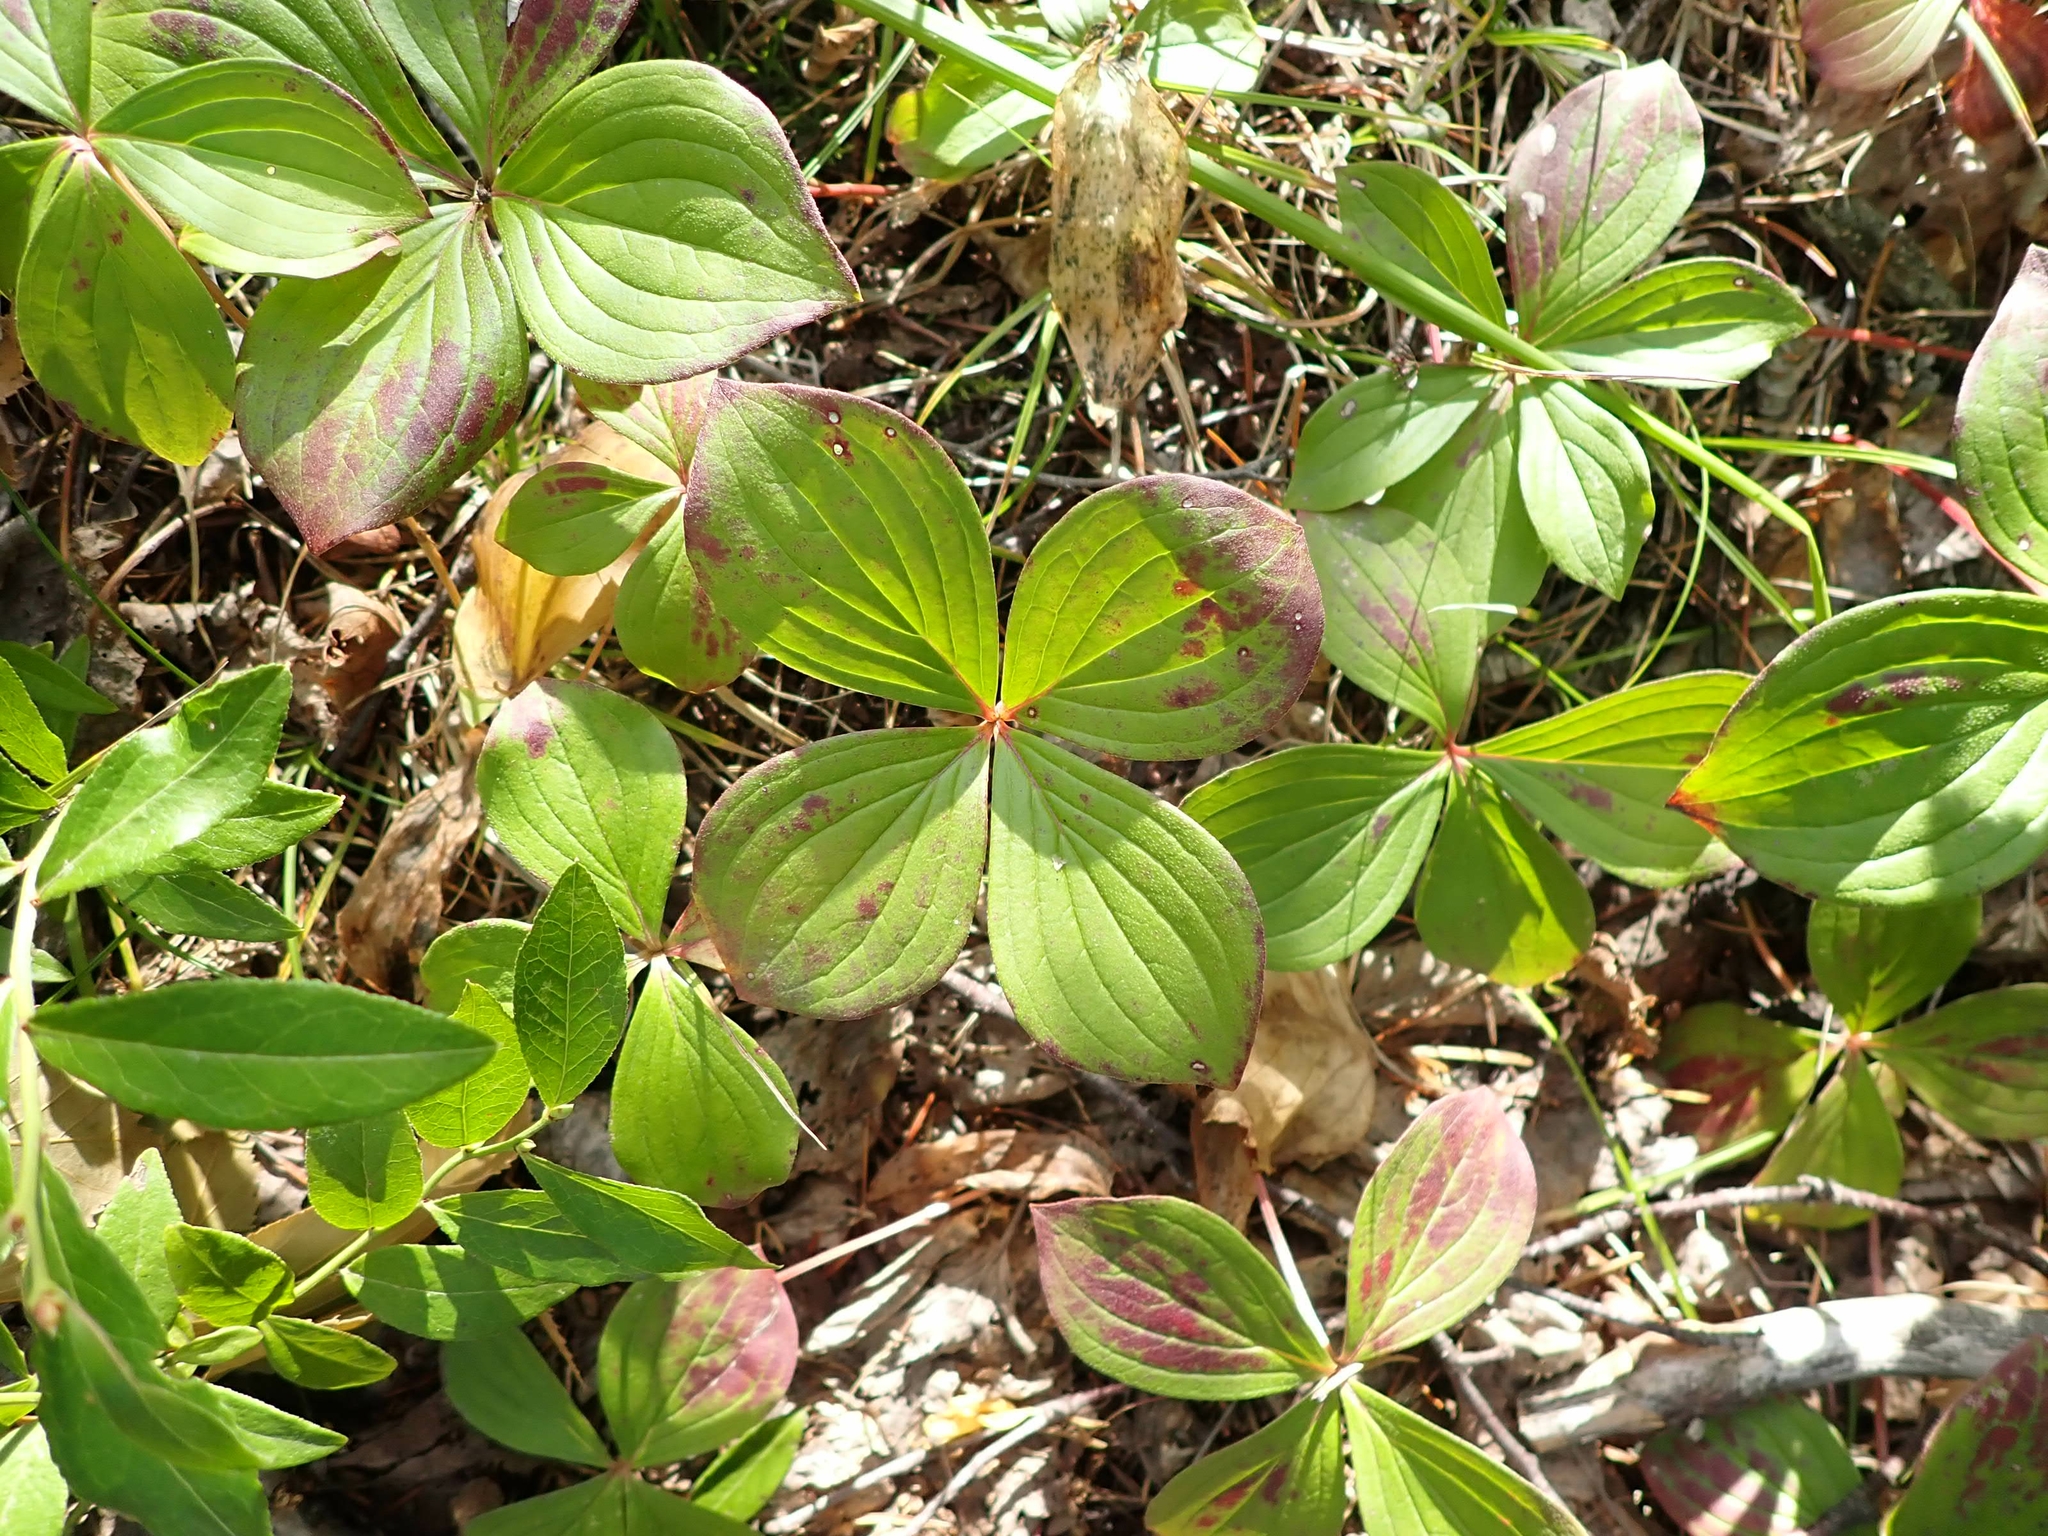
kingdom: Plantae
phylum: Tracheophyta
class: Magnoliopsida
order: Cornales
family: Cornaceae
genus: Cornus
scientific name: Cornus canadensis
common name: Creeping dogwood
